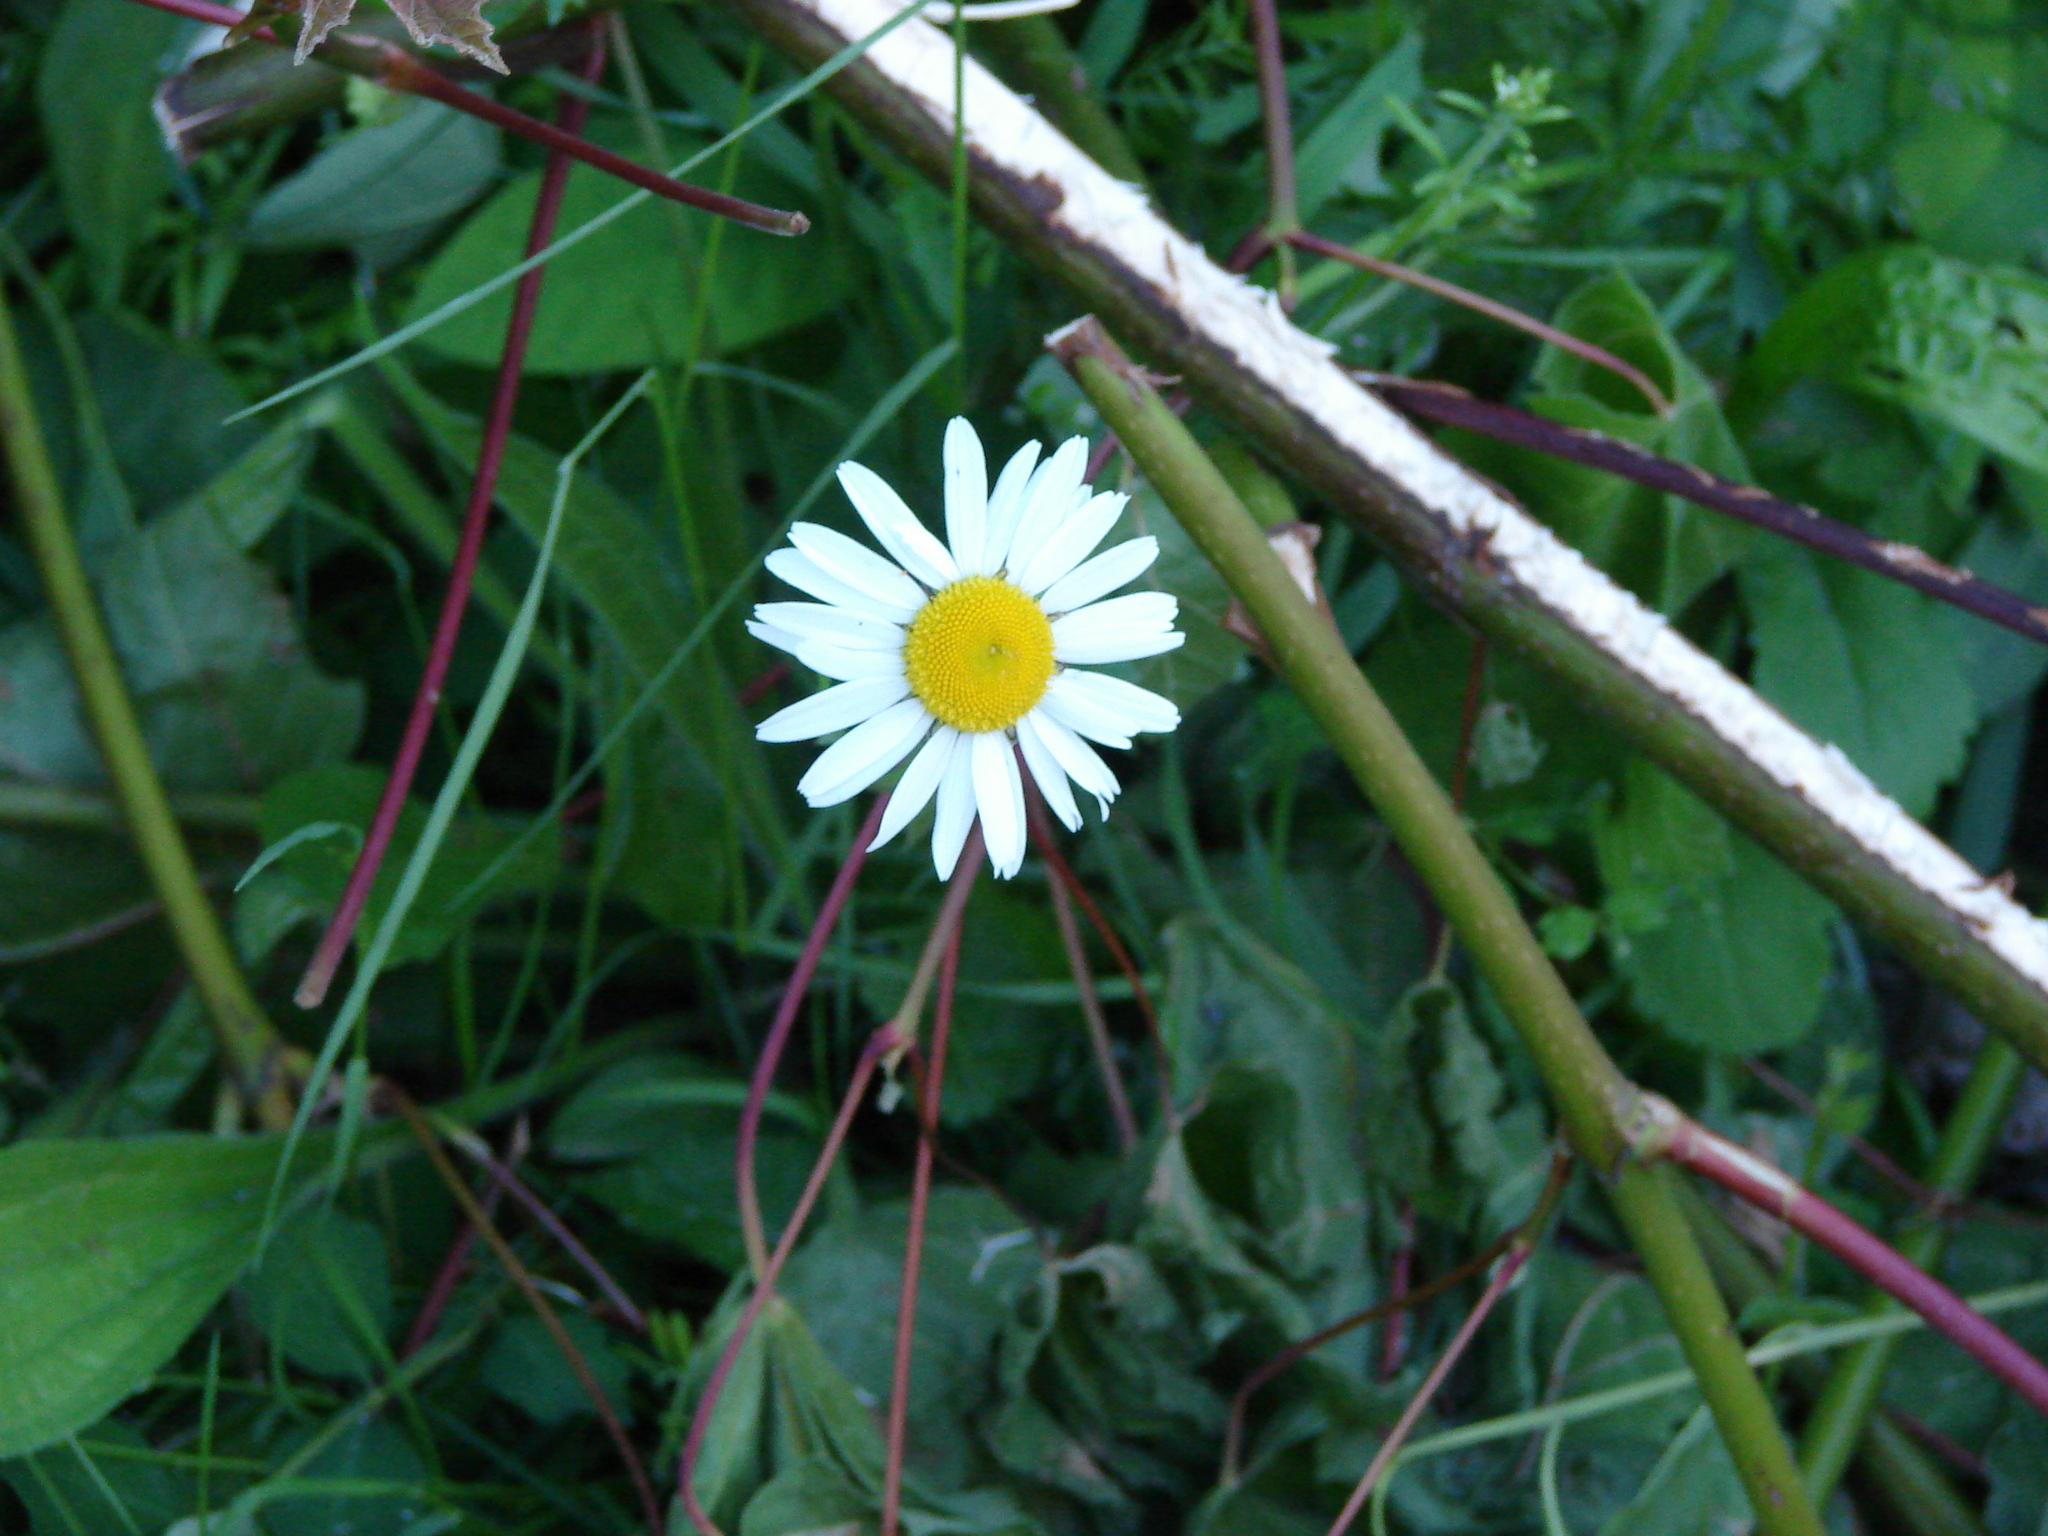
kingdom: Plantae
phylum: Tracheophyta
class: Magnoliopsida
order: Asterales
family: Asteraceae
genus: Leucanthemum
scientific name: Leucanthemum vulgare
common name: Oxeye daisy
